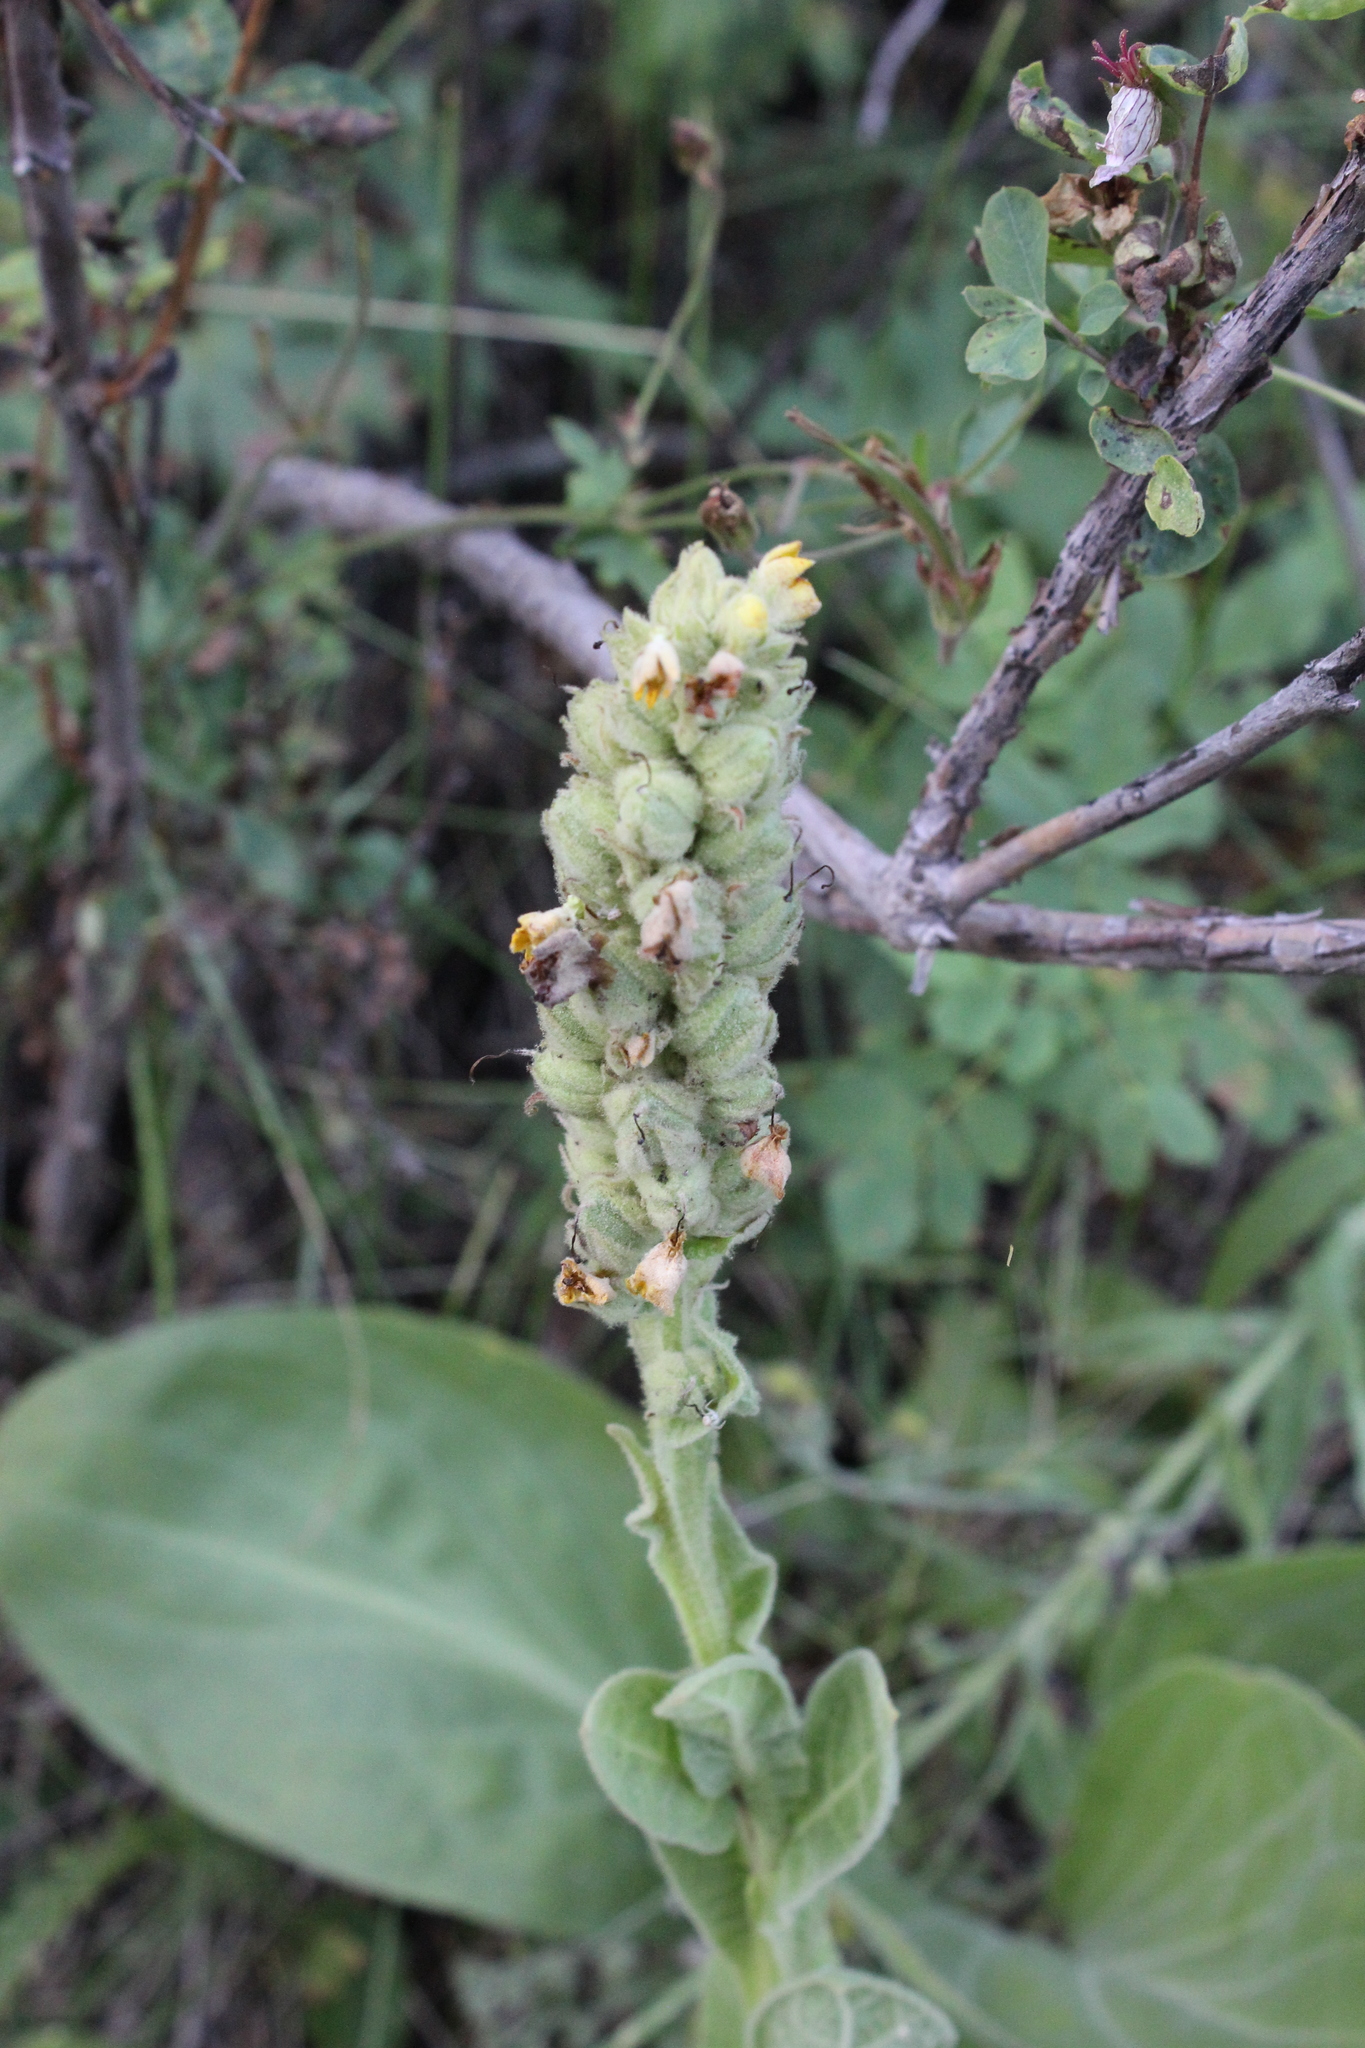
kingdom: Plantae
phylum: Tracheophyta
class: Magnoliopsida
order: Lamiales
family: Scrophulariaceae
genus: Verbascum
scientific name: Verbascum thapsus
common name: Common mullein
